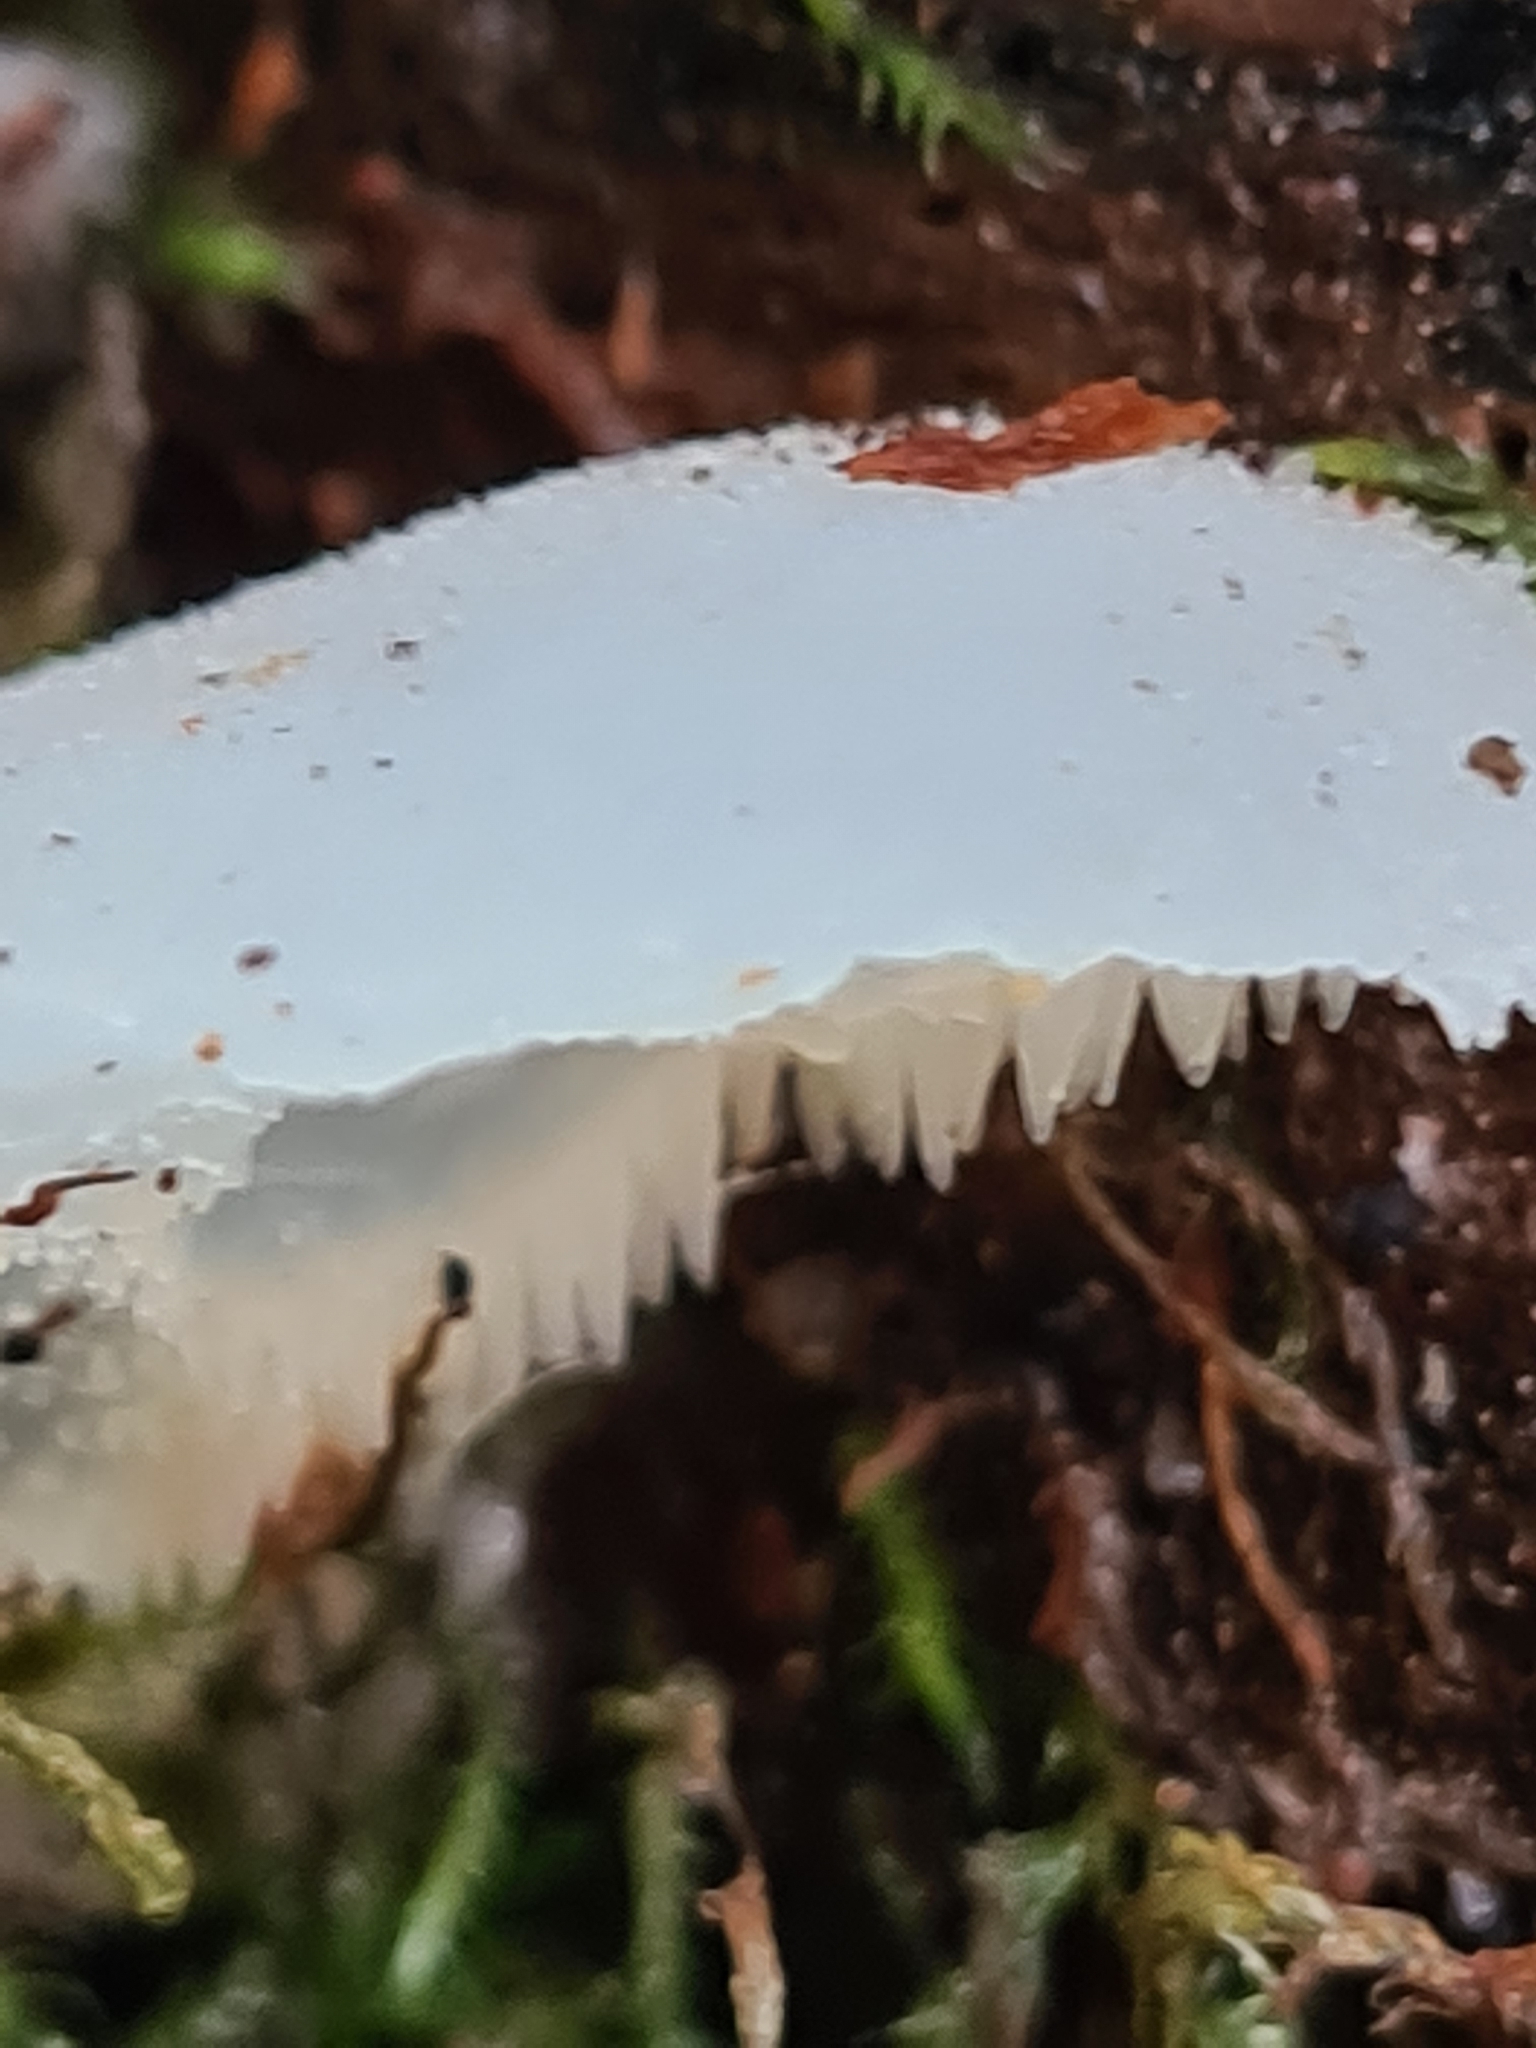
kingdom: Fungi
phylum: Basidiomycota
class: Agaricomycetes
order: Auriculariales
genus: Pseudohydnum
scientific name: Pseudohydnum gelatinosum
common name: Jelly tongue
